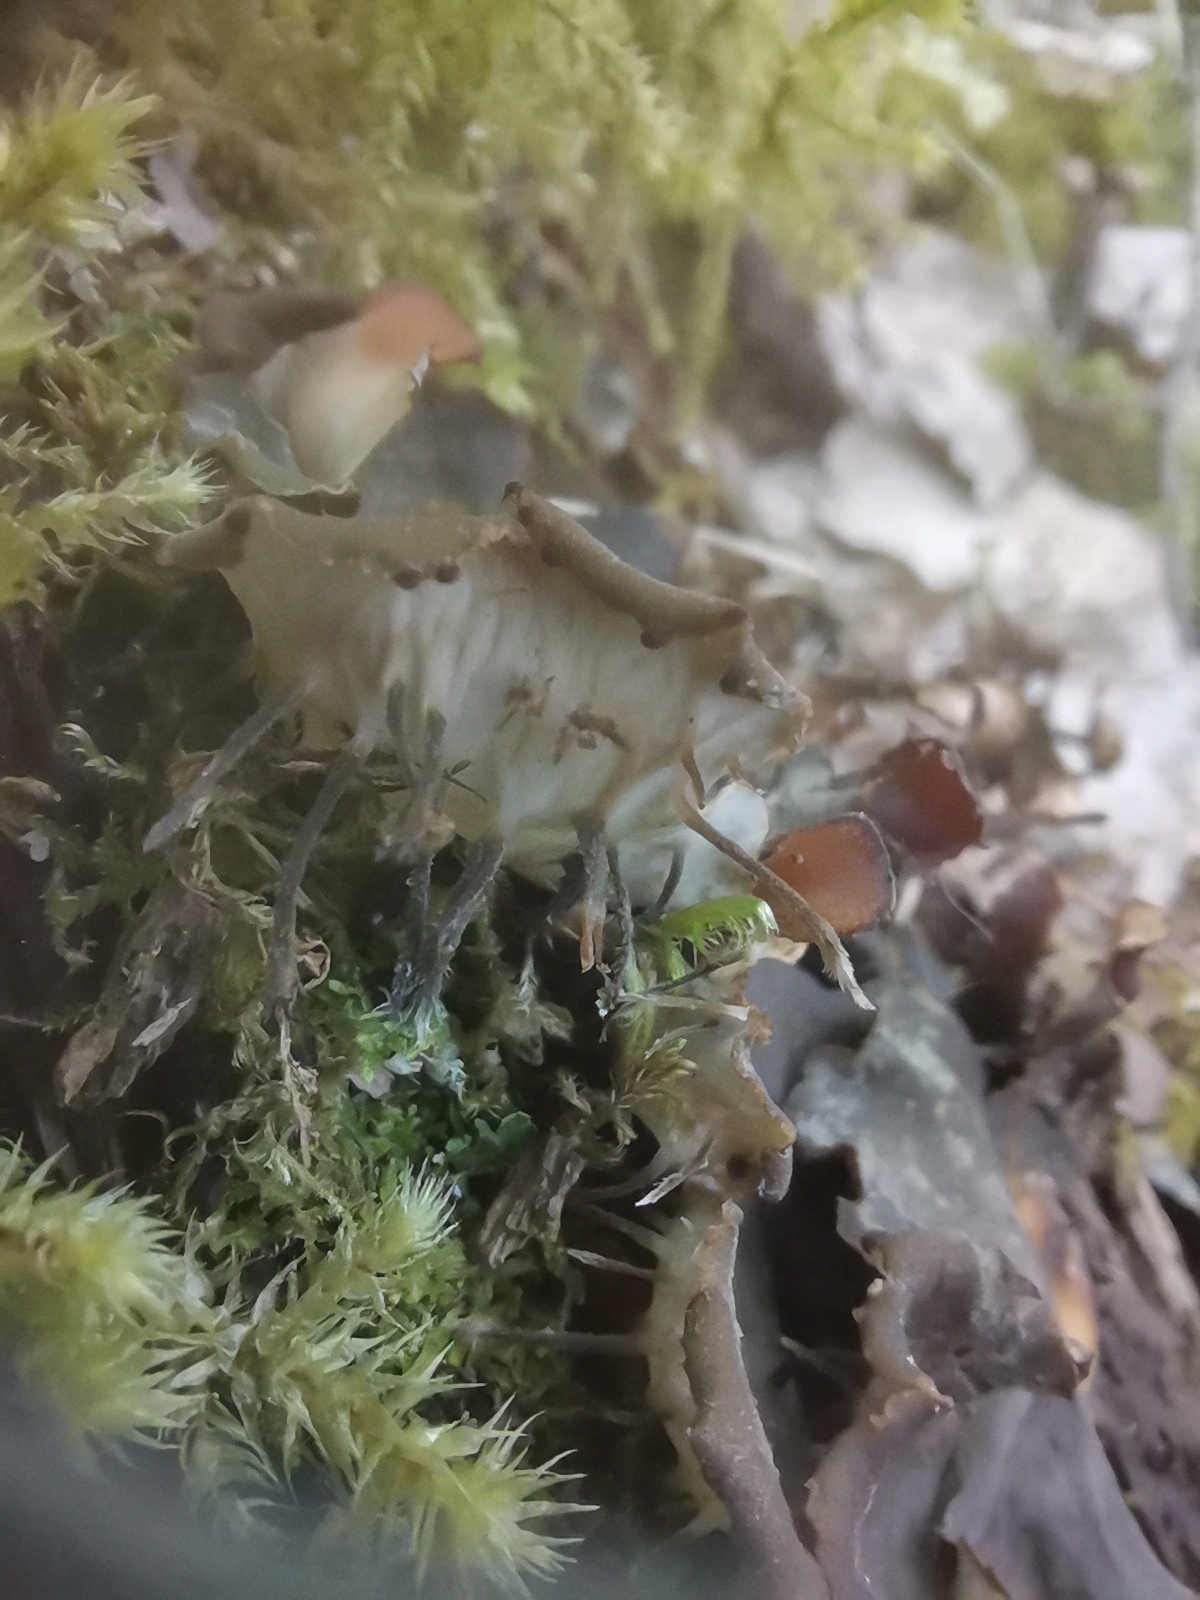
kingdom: Fungi
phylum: Ascomycota
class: Lecanoromycetes
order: Peltigerales
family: Peltigeraceae
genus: Peltigera
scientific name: Peltigera praetextata
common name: Scaly dog-lichen
